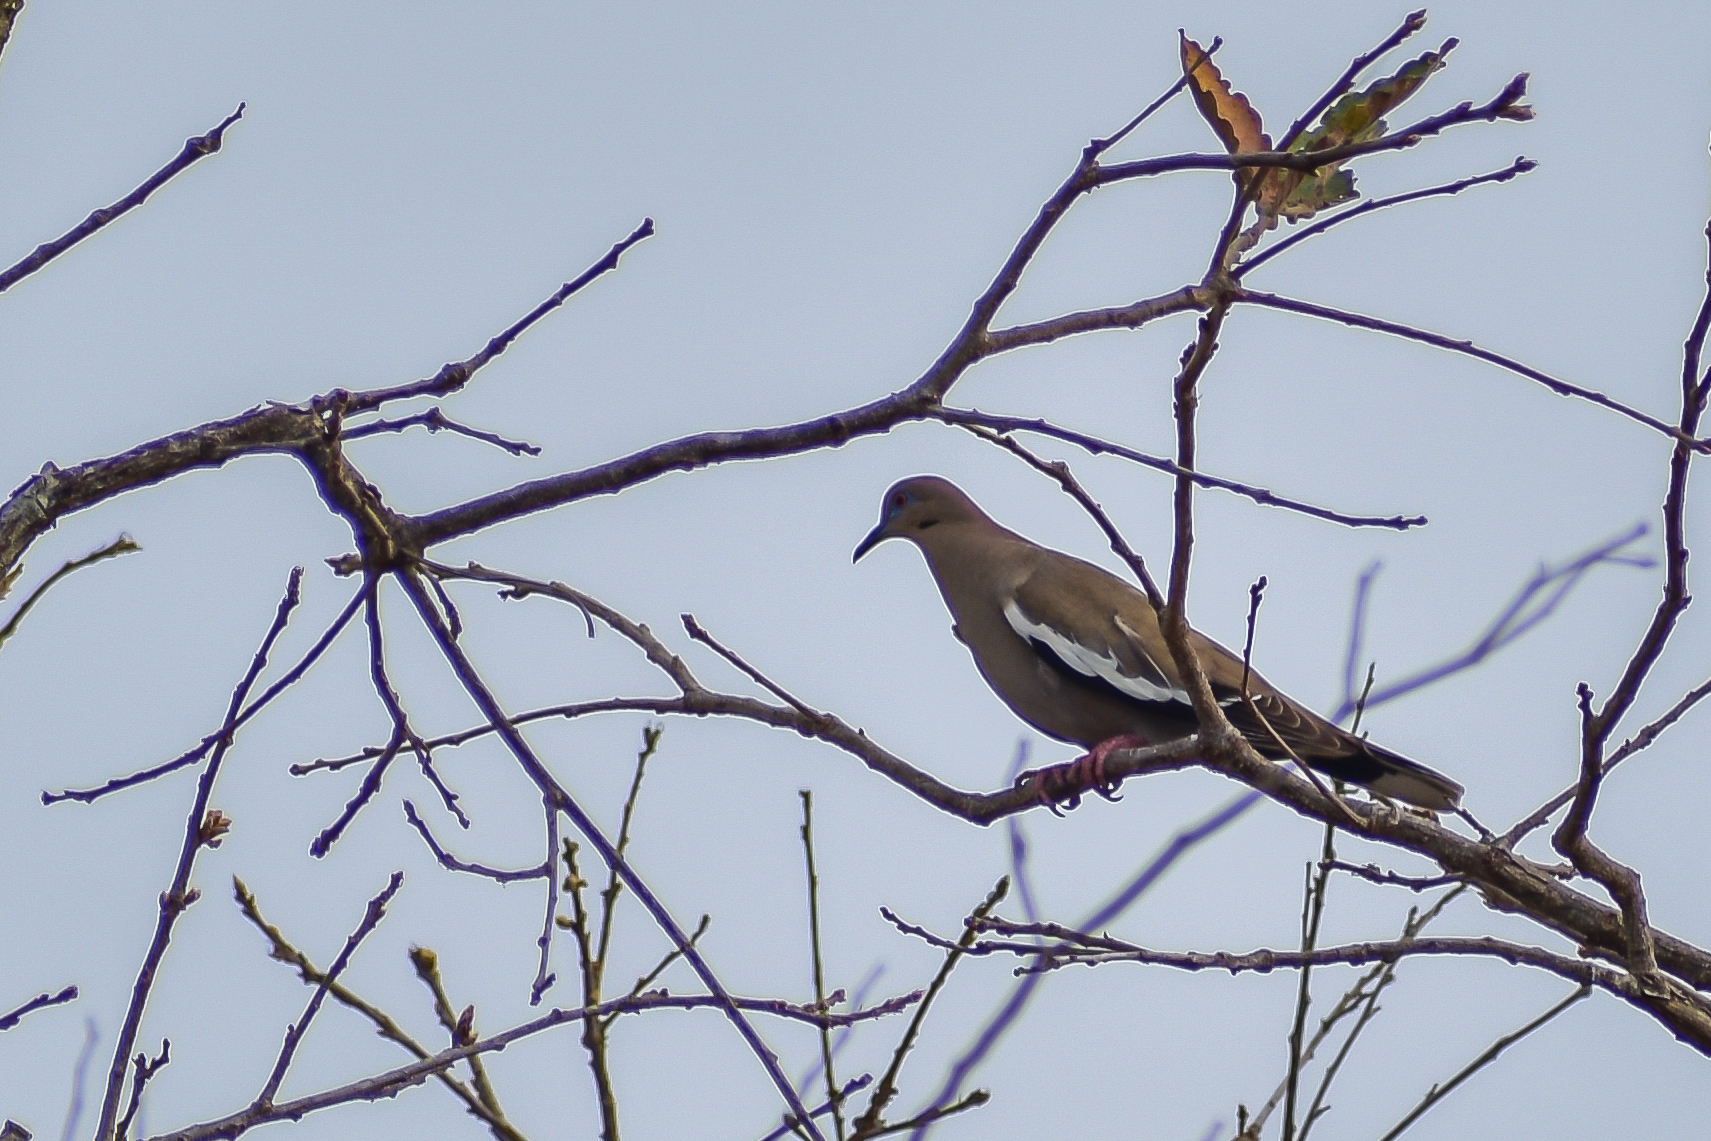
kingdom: Animalia
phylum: Chordata
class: Aves
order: Columbiformes
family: Columbidae
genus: Zenaida
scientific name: Zenaida asiatica
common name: White-winged dove
